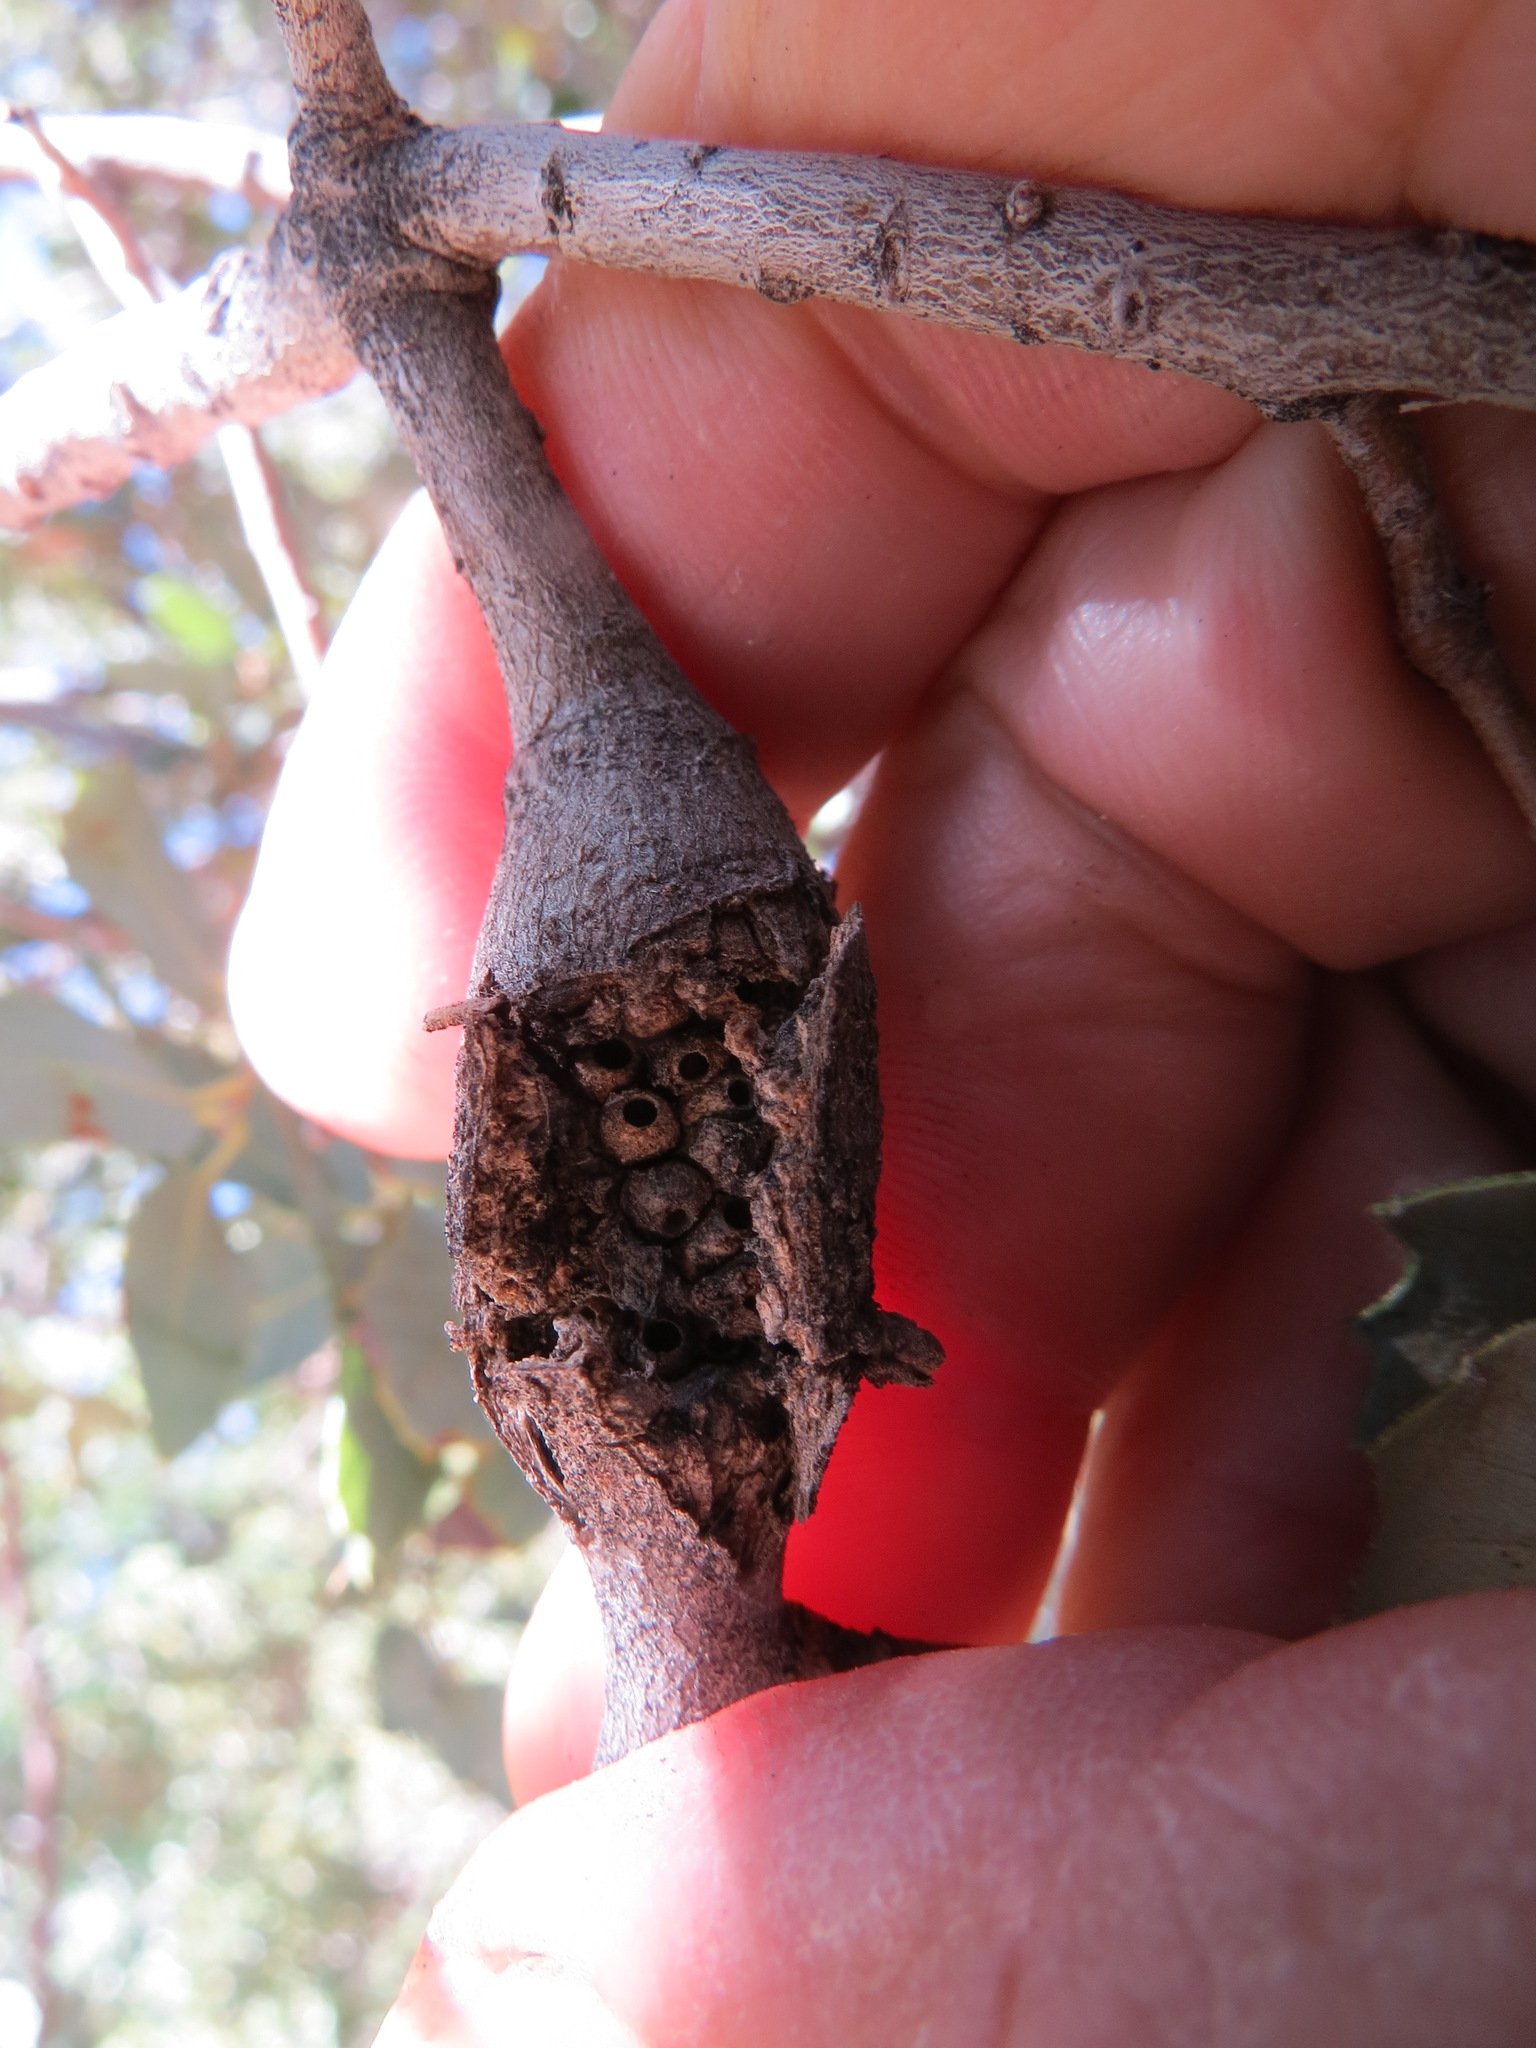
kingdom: Animalia
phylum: Arthropoda
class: Insecta
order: Hymenoptera
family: Cynipidae
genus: Dryocosmus
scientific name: Dryocosmus
